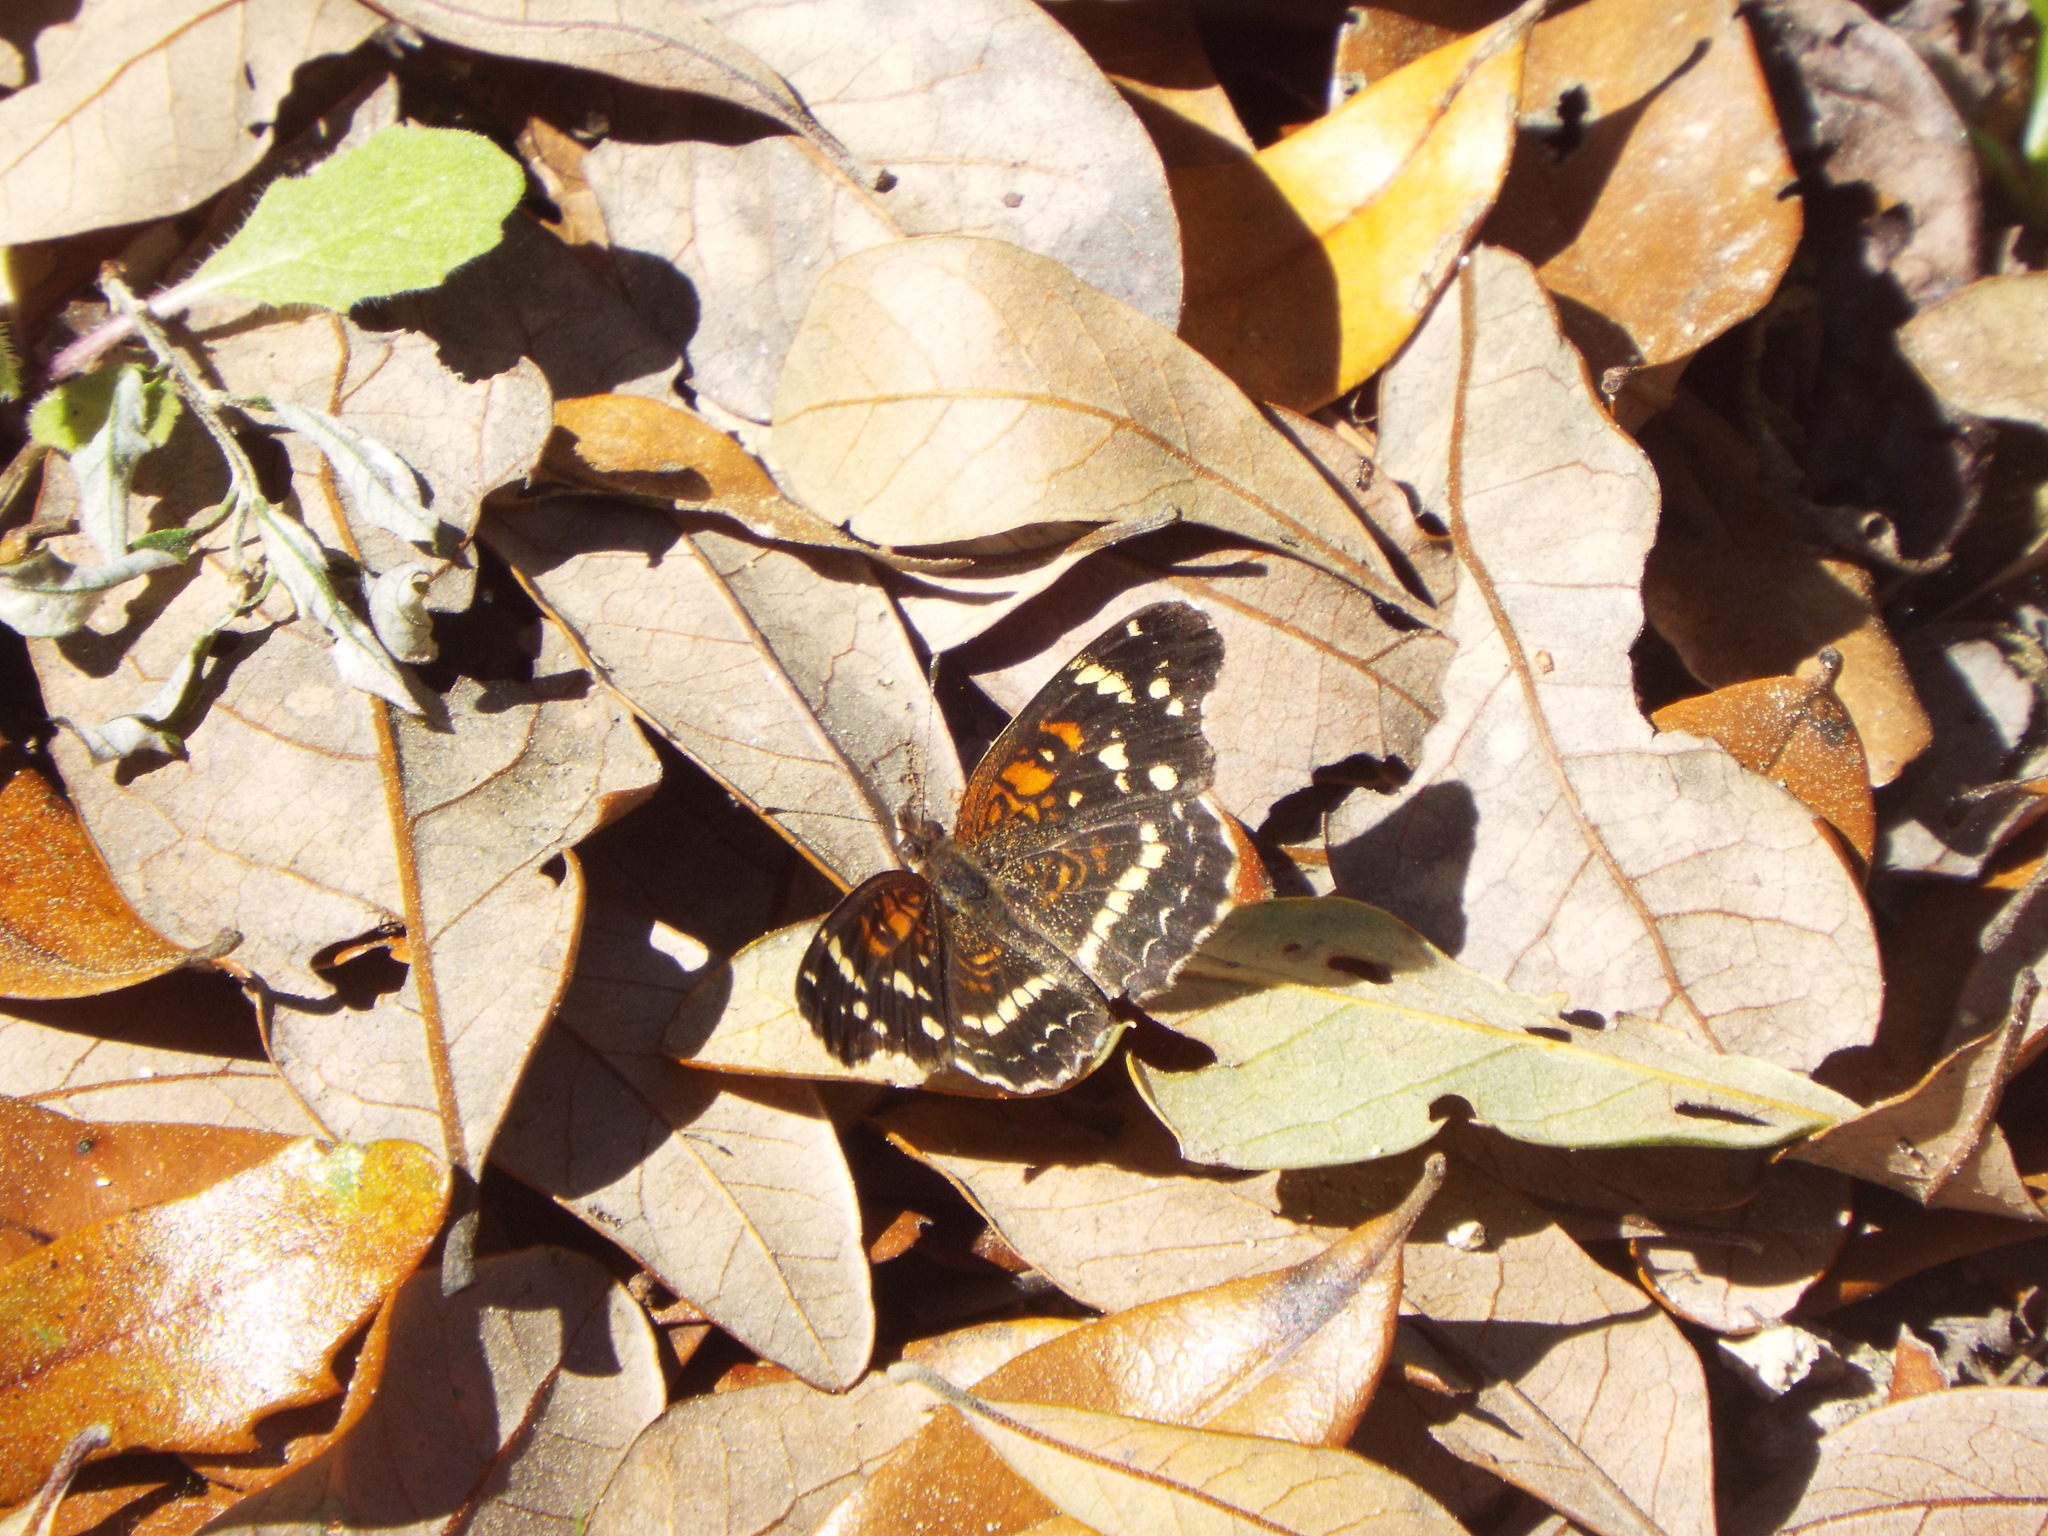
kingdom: Animalia
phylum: Arthropoda
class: Insecta
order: Lepidoptera
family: Nymphalidae
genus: Anthanassa
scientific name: Anthanassa taxana
